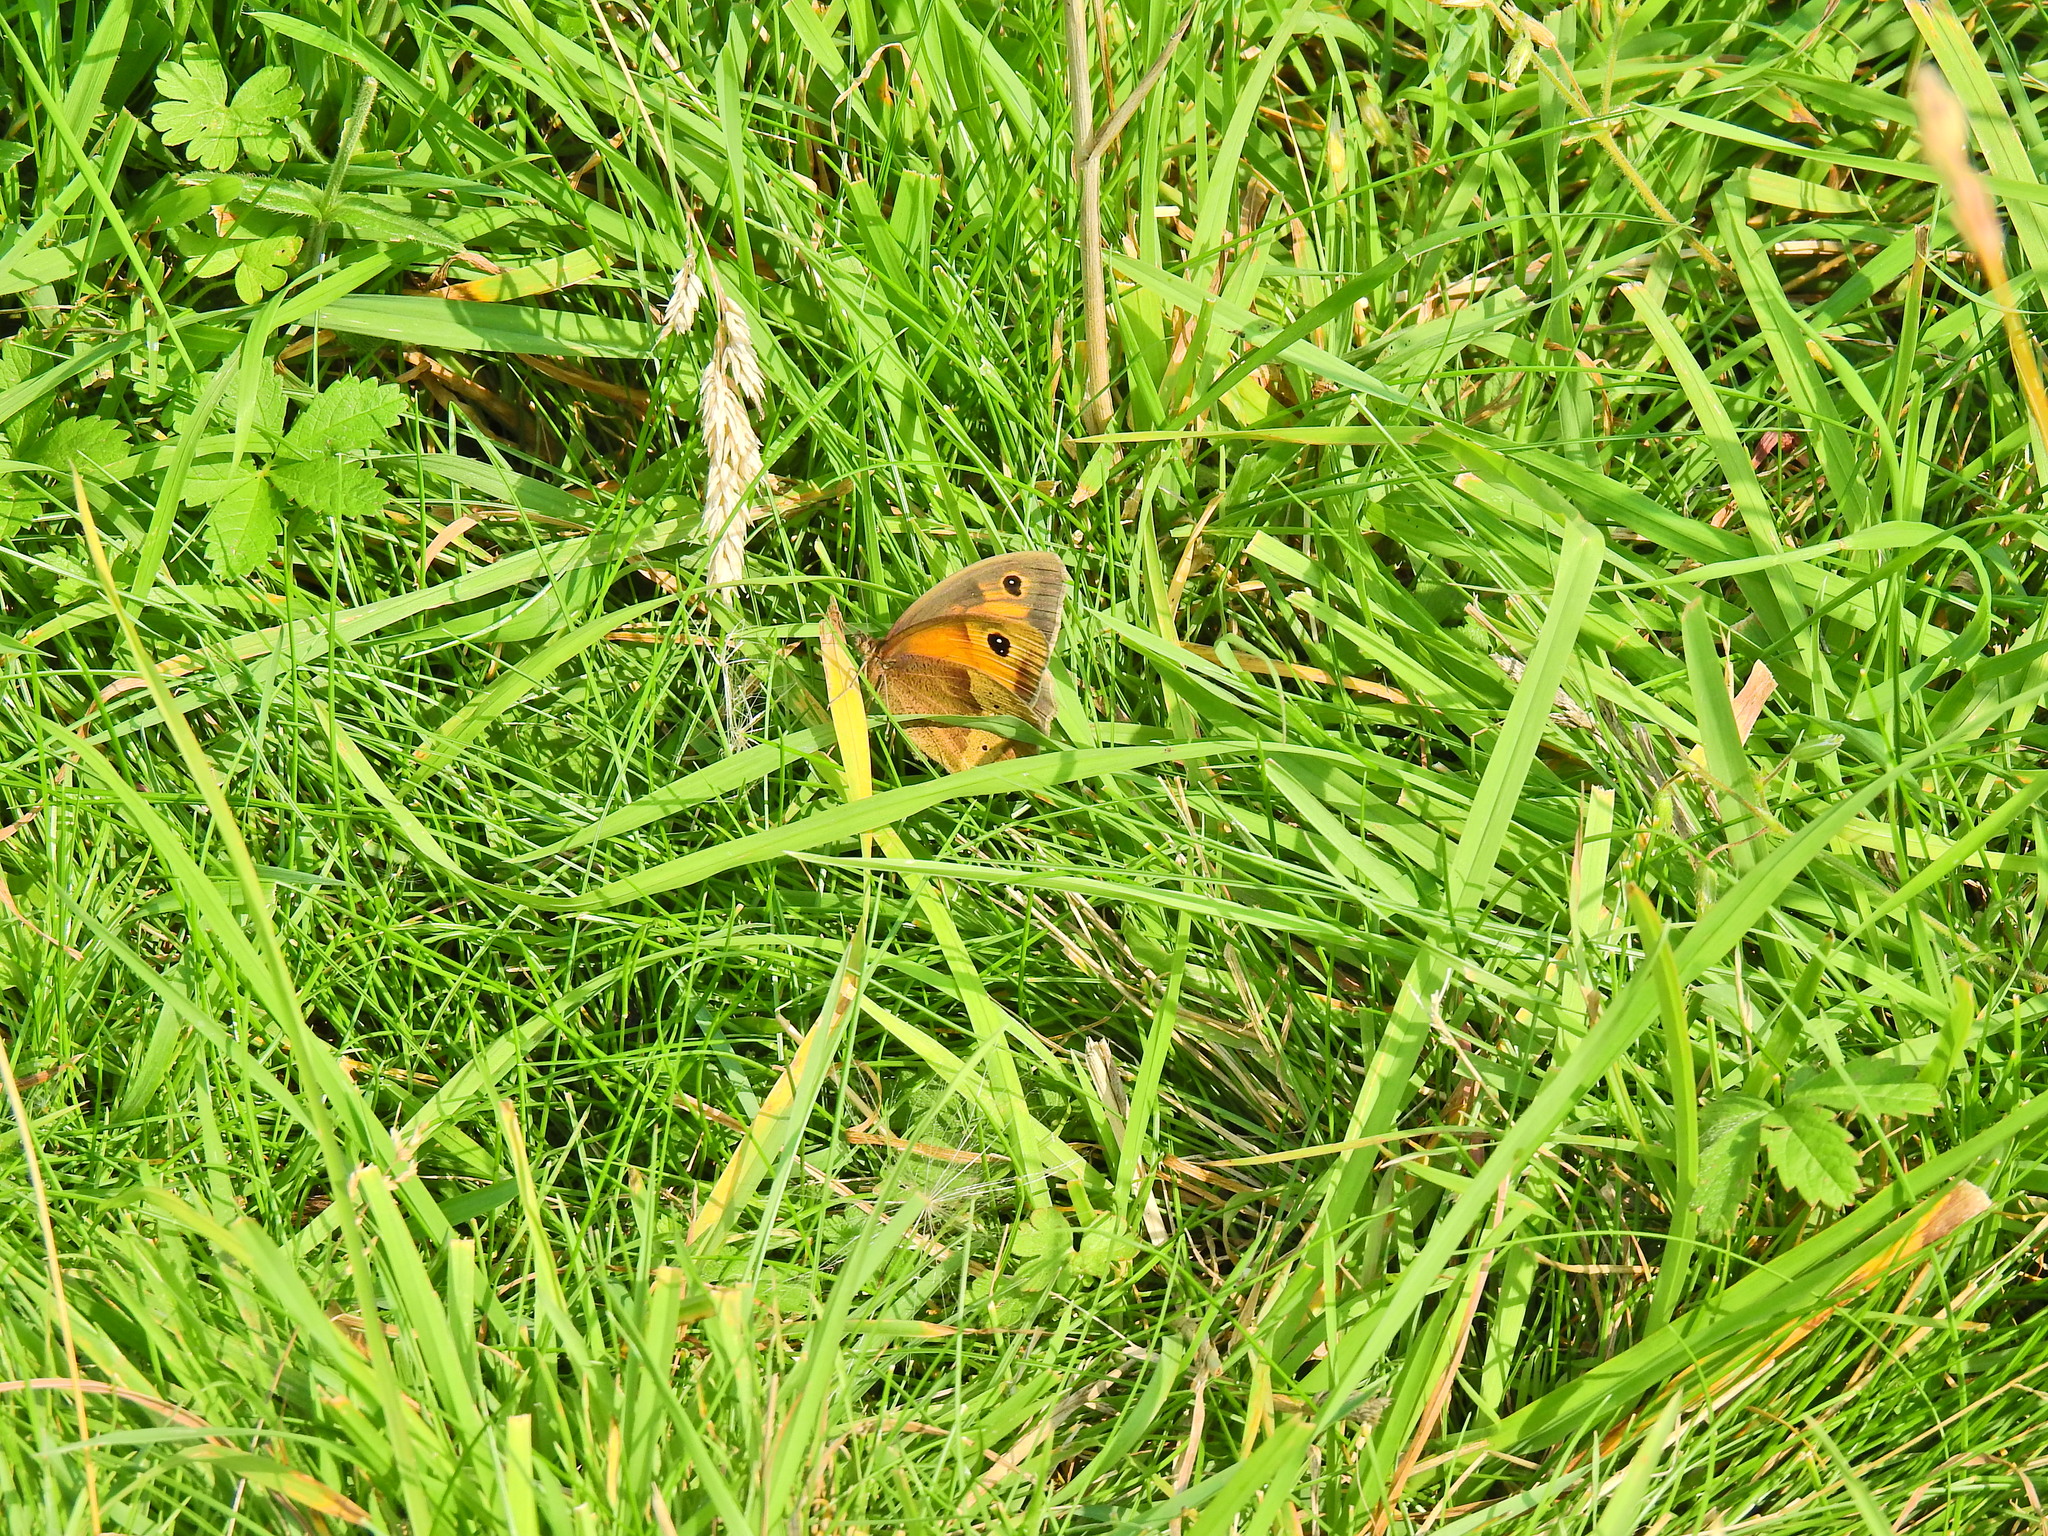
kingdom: Animalia
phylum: Arthropoda
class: Insecta
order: Lepidoptera
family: Nymphalidae
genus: Maniola
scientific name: Maniola jurtina
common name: Meadow brown
